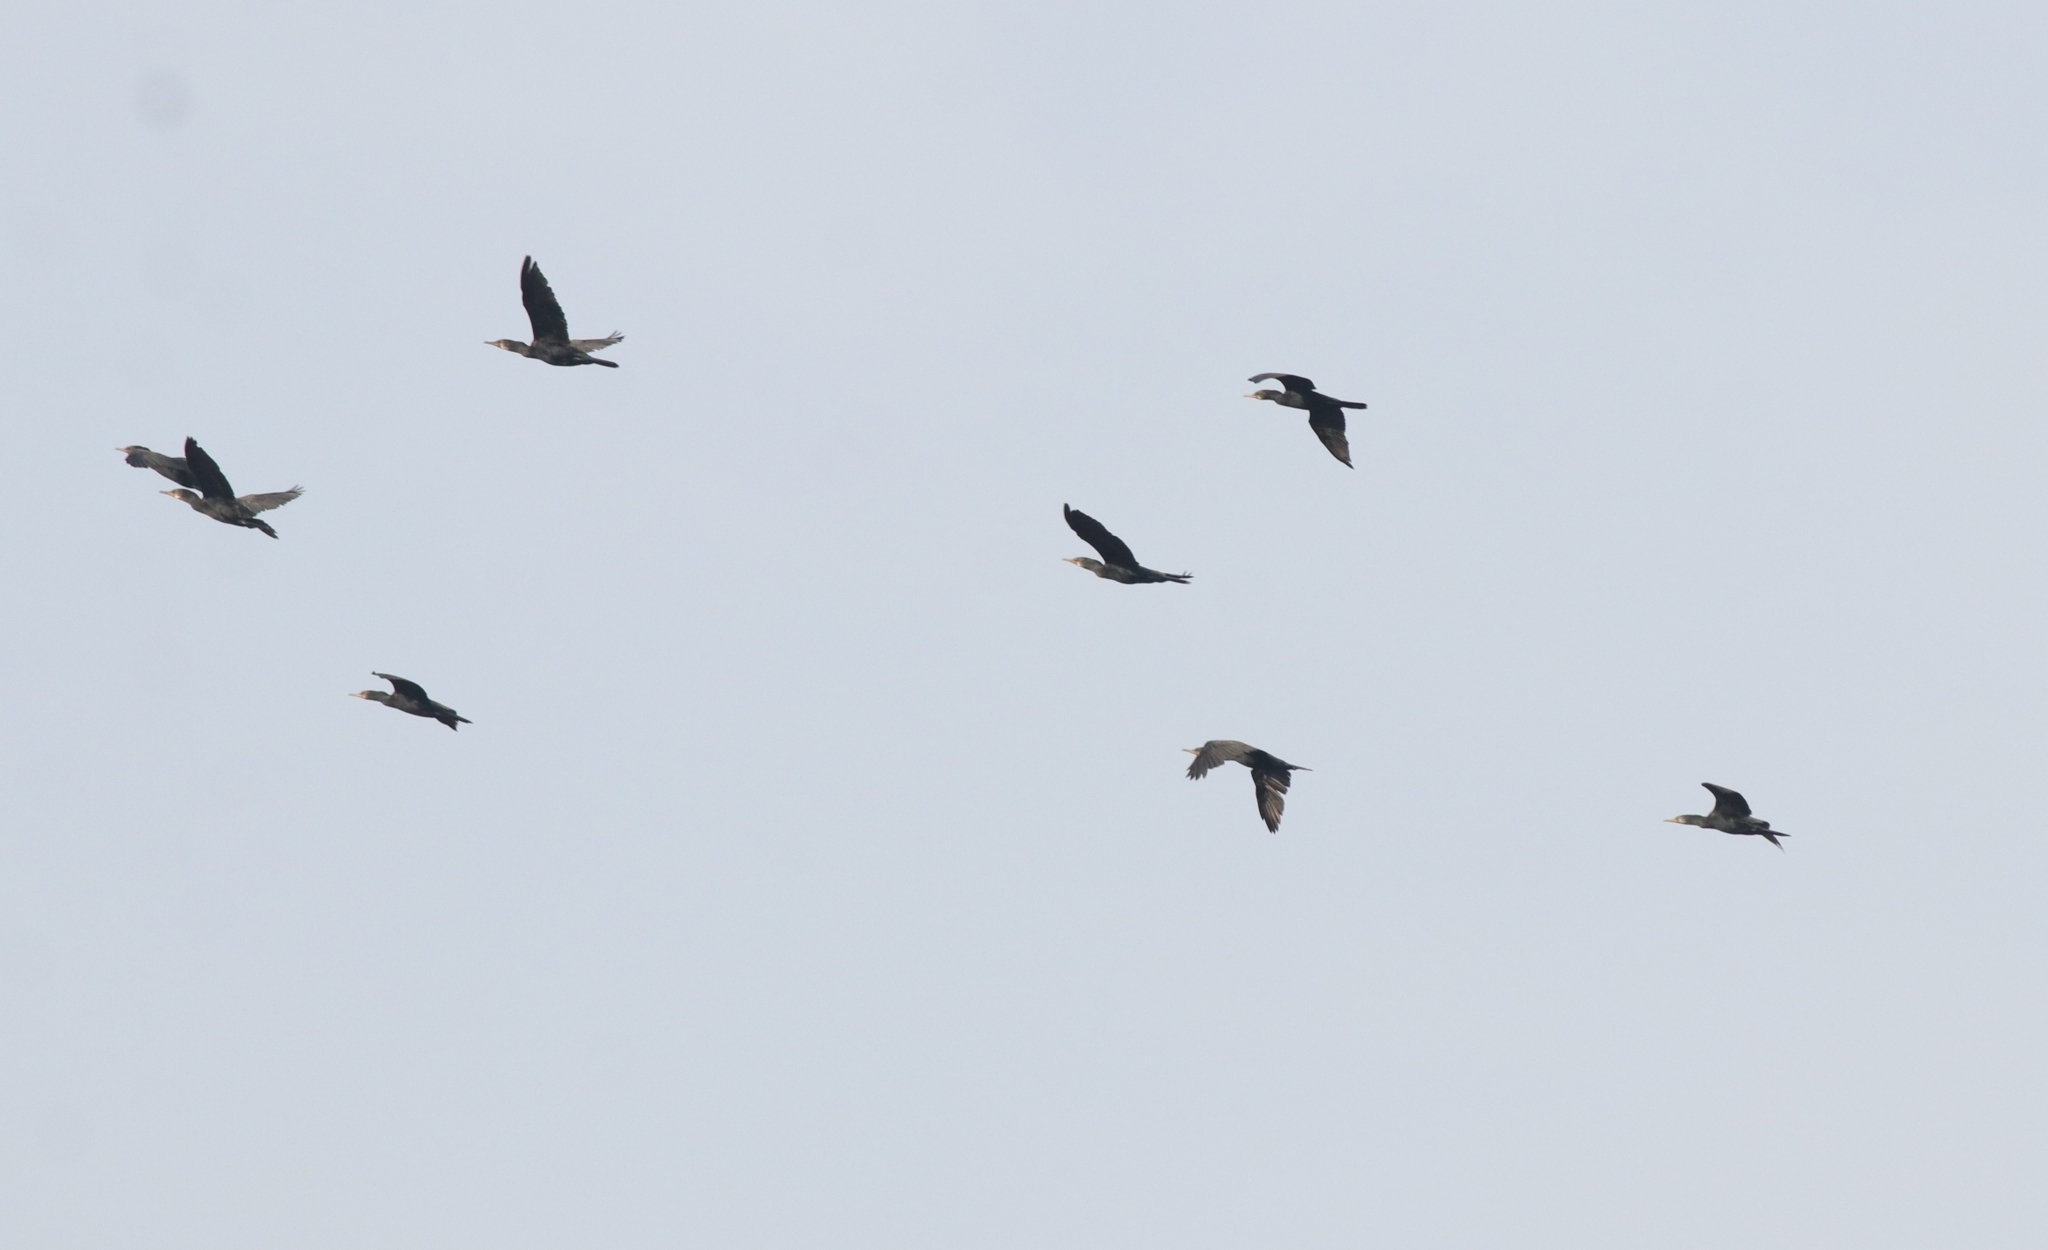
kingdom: Animalia
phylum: Chordata
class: Aves
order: Suliformes
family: Phalacrocoracidae
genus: Phalacrocorax
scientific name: Phalacrocorax fuscicollis
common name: Indian cormorant
